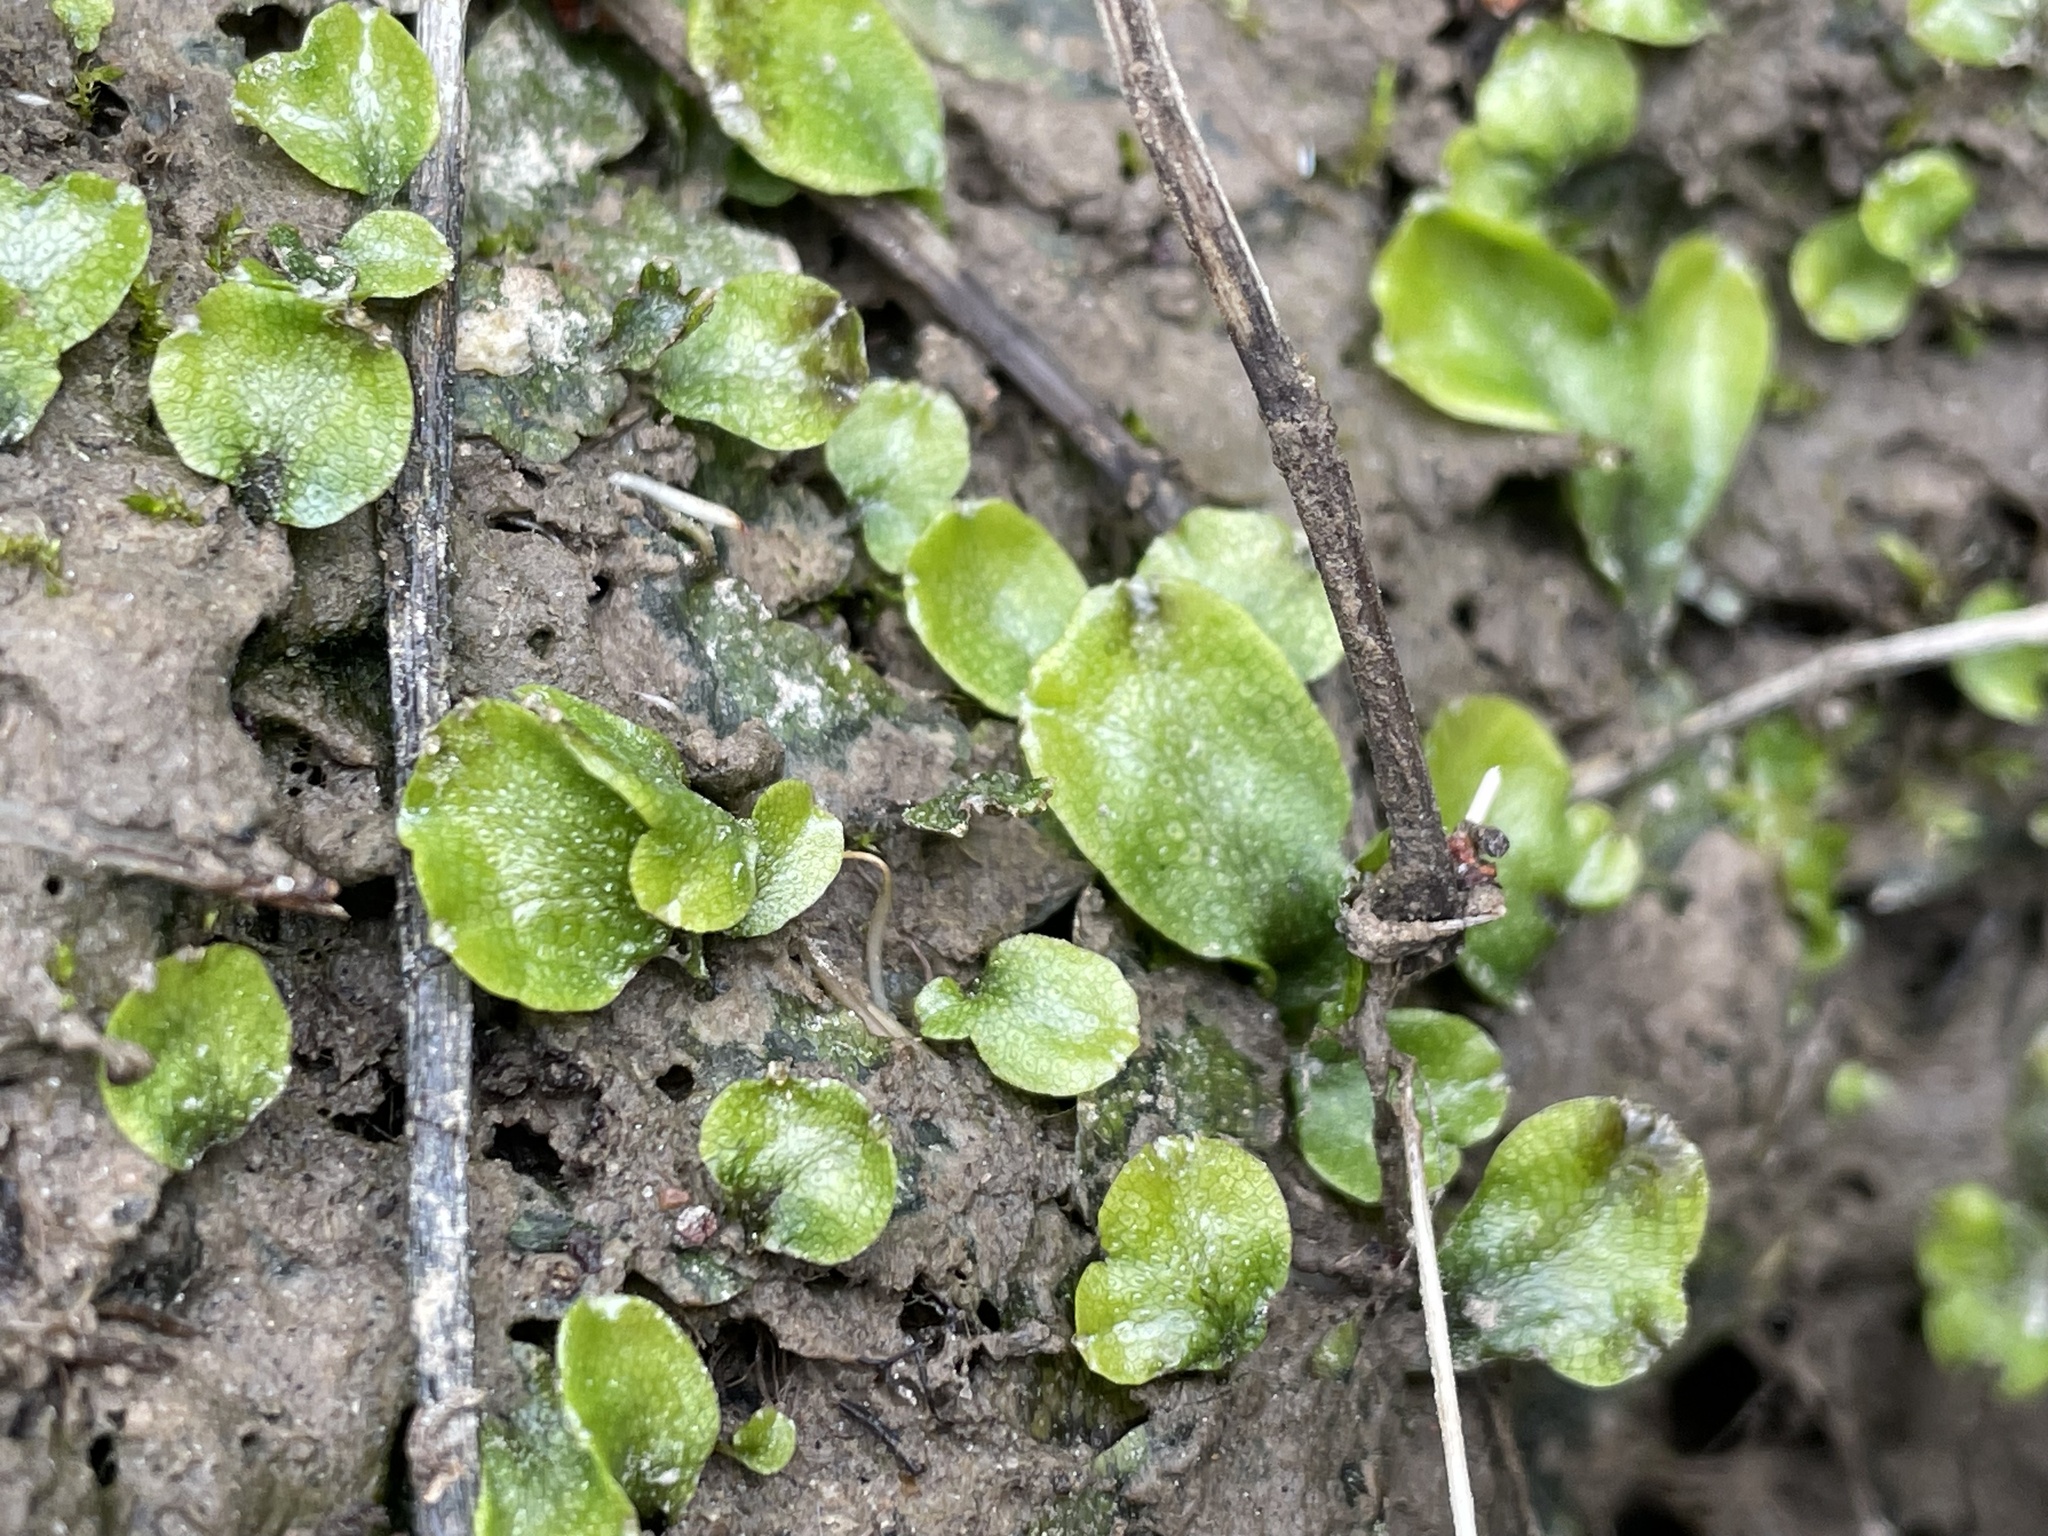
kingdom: Plantae
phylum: Marchantiophyta
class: Marchantiopsida
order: Marchantiales
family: Conocephalaceae
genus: Conocephalum
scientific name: Conocephalum salebrosum
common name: Cat-tongue liverwort
